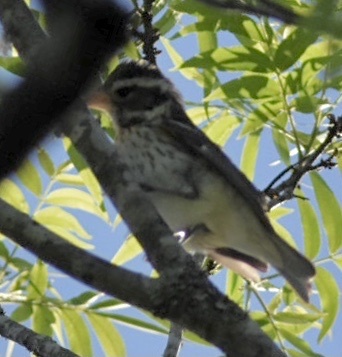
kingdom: Animalia
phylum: Chordata
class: Aves
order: Passeriformes
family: Cardinalidae
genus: Pheucticus
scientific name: Pheucticus ludovicianus
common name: Rose-breasted grosbeak
